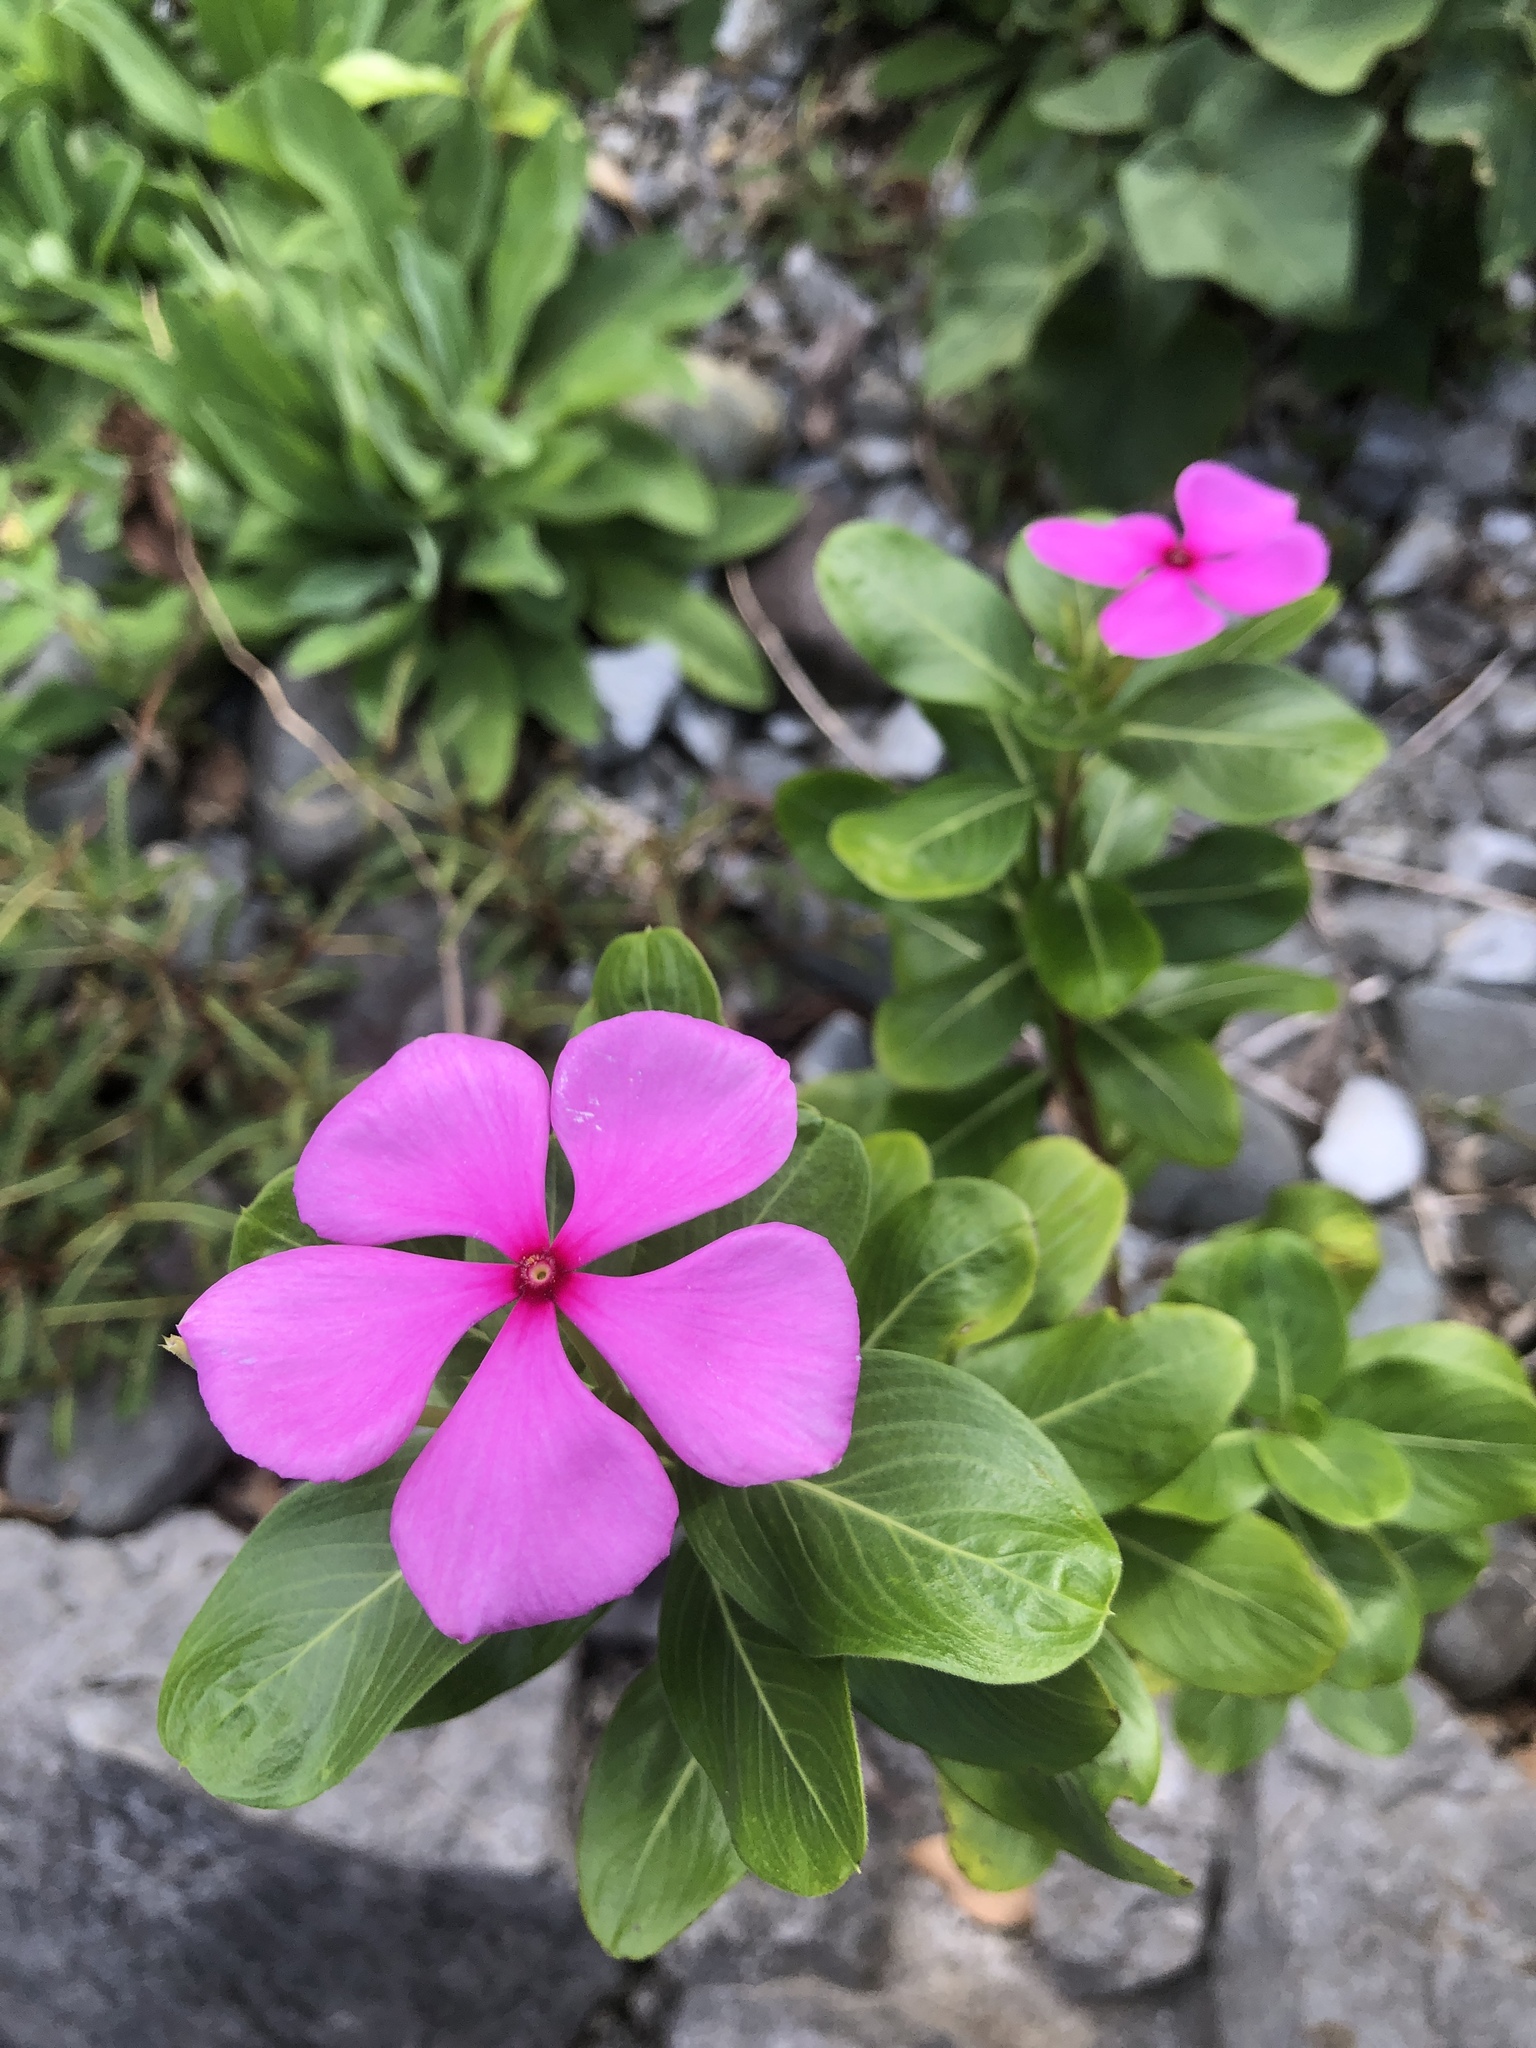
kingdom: Plantae
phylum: Tracheophyta
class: Magnoliopsida
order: Gentianales
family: Apocynaceae
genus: Catharanthus
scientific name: Catharanthus roseus
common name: Madagascar periwinkle
